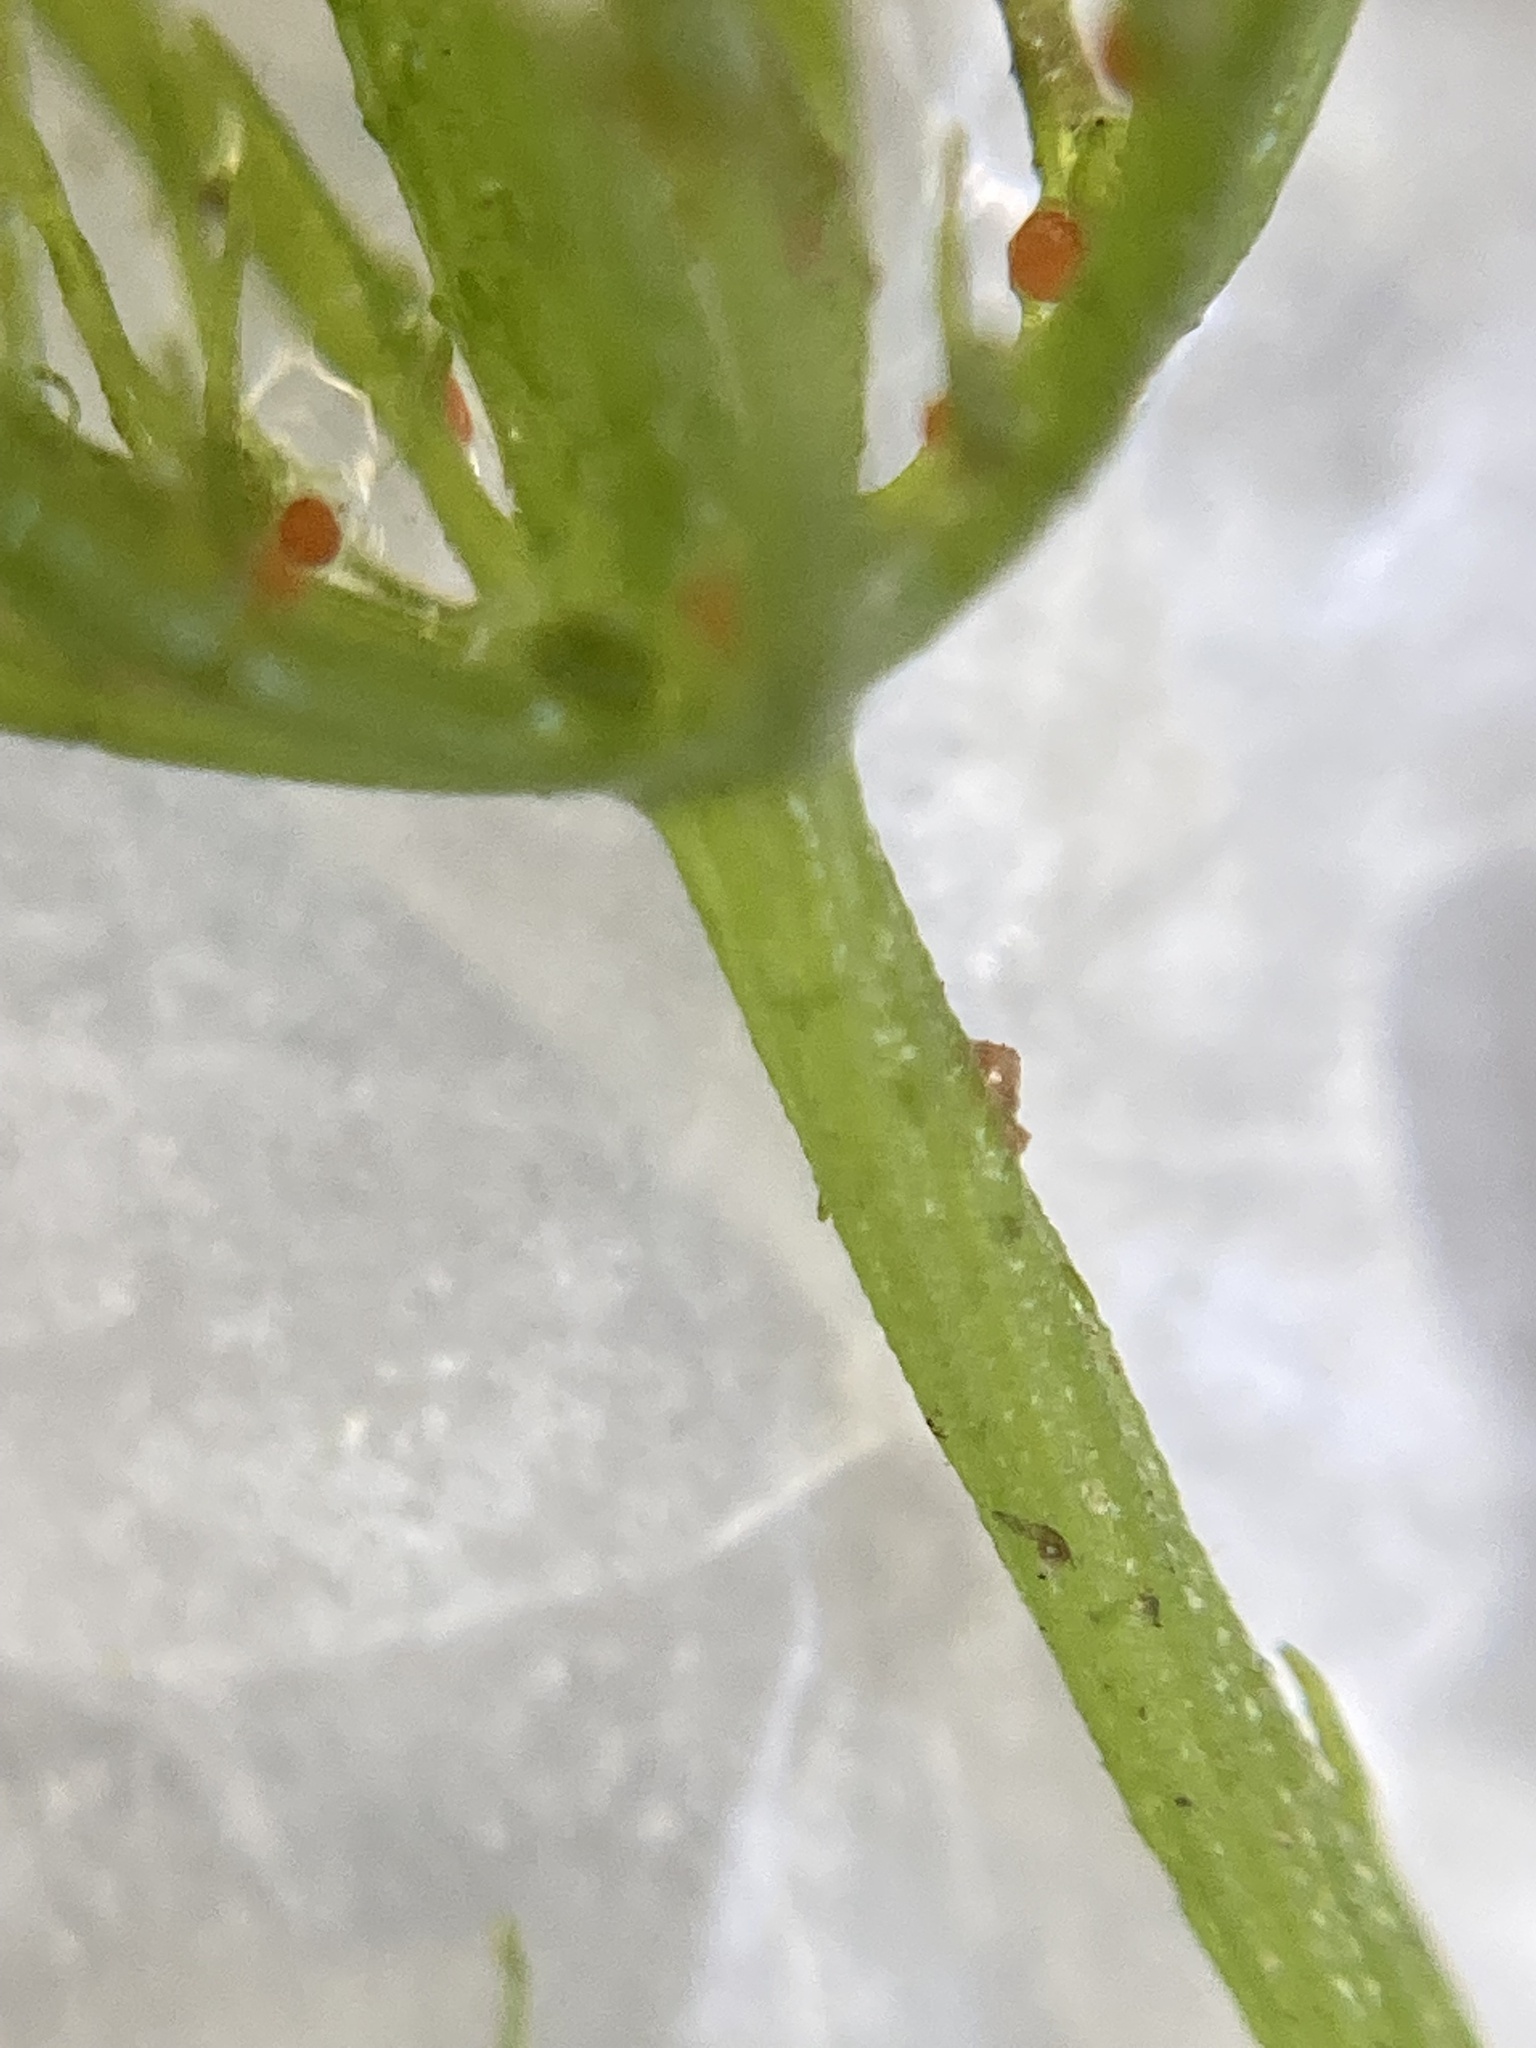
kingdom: Plantae
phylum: Charophyta
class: Charophyceae
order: Charales
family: Characeae
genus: Chara
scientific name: Chara vulgaris
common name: Common stonewort
